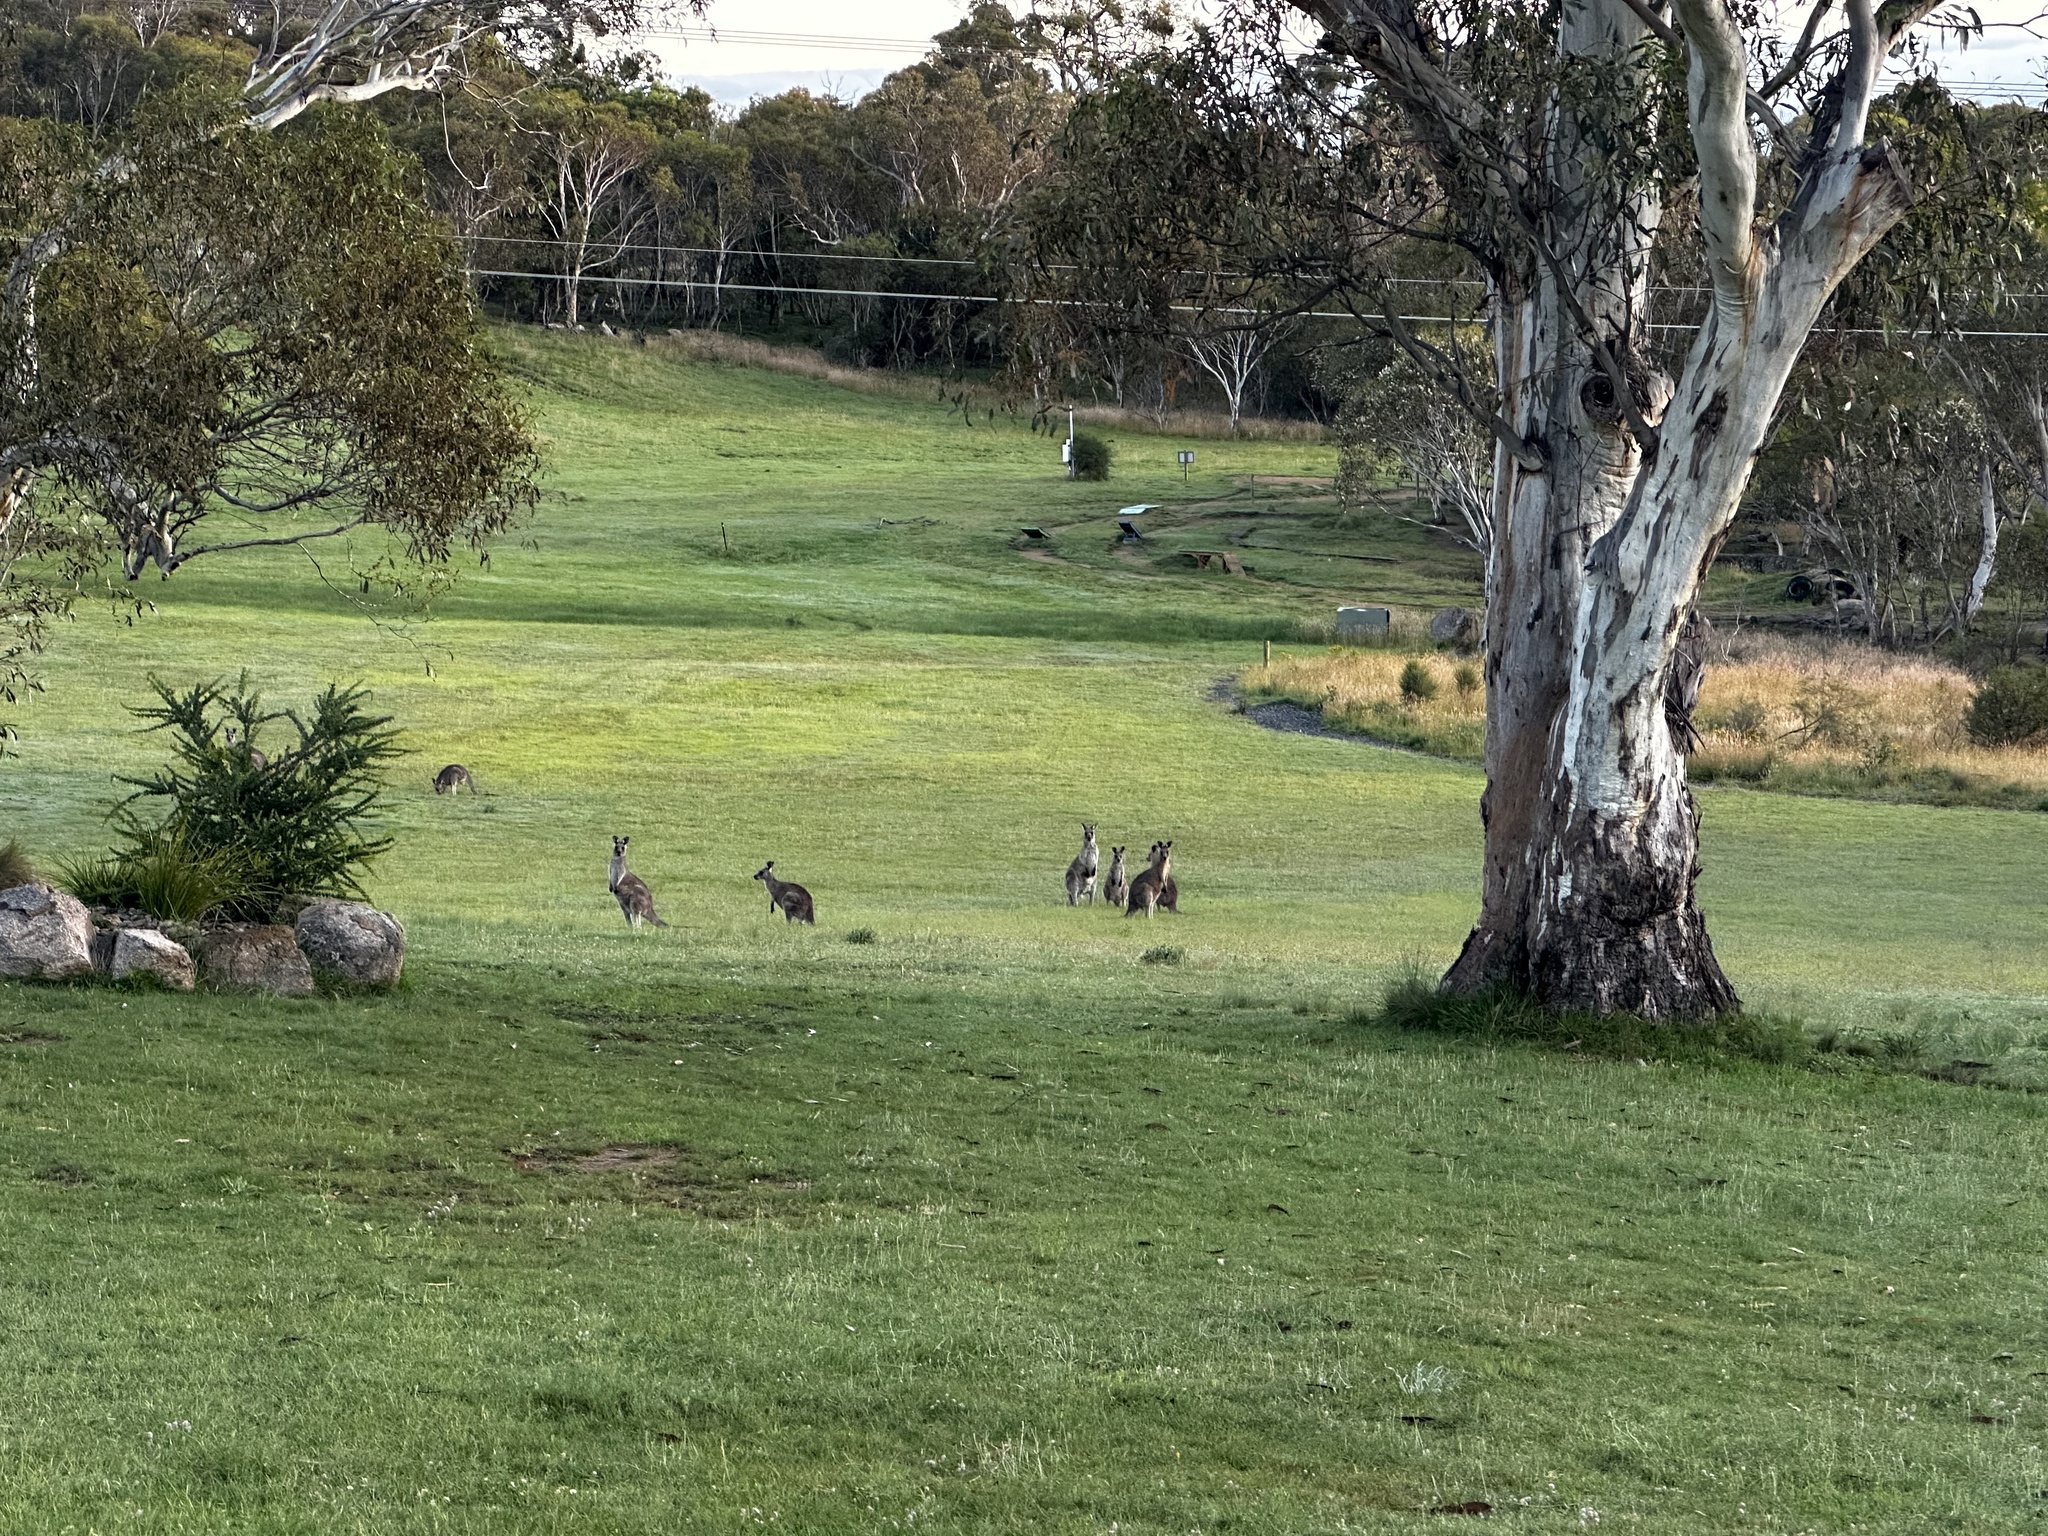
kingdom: Animalia
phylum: Chordata
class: Mammalia
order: Diprotodontia
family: Macropodidae
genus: Macropus
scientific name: Macropus giganteus
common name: Eastern grey kangaroo
